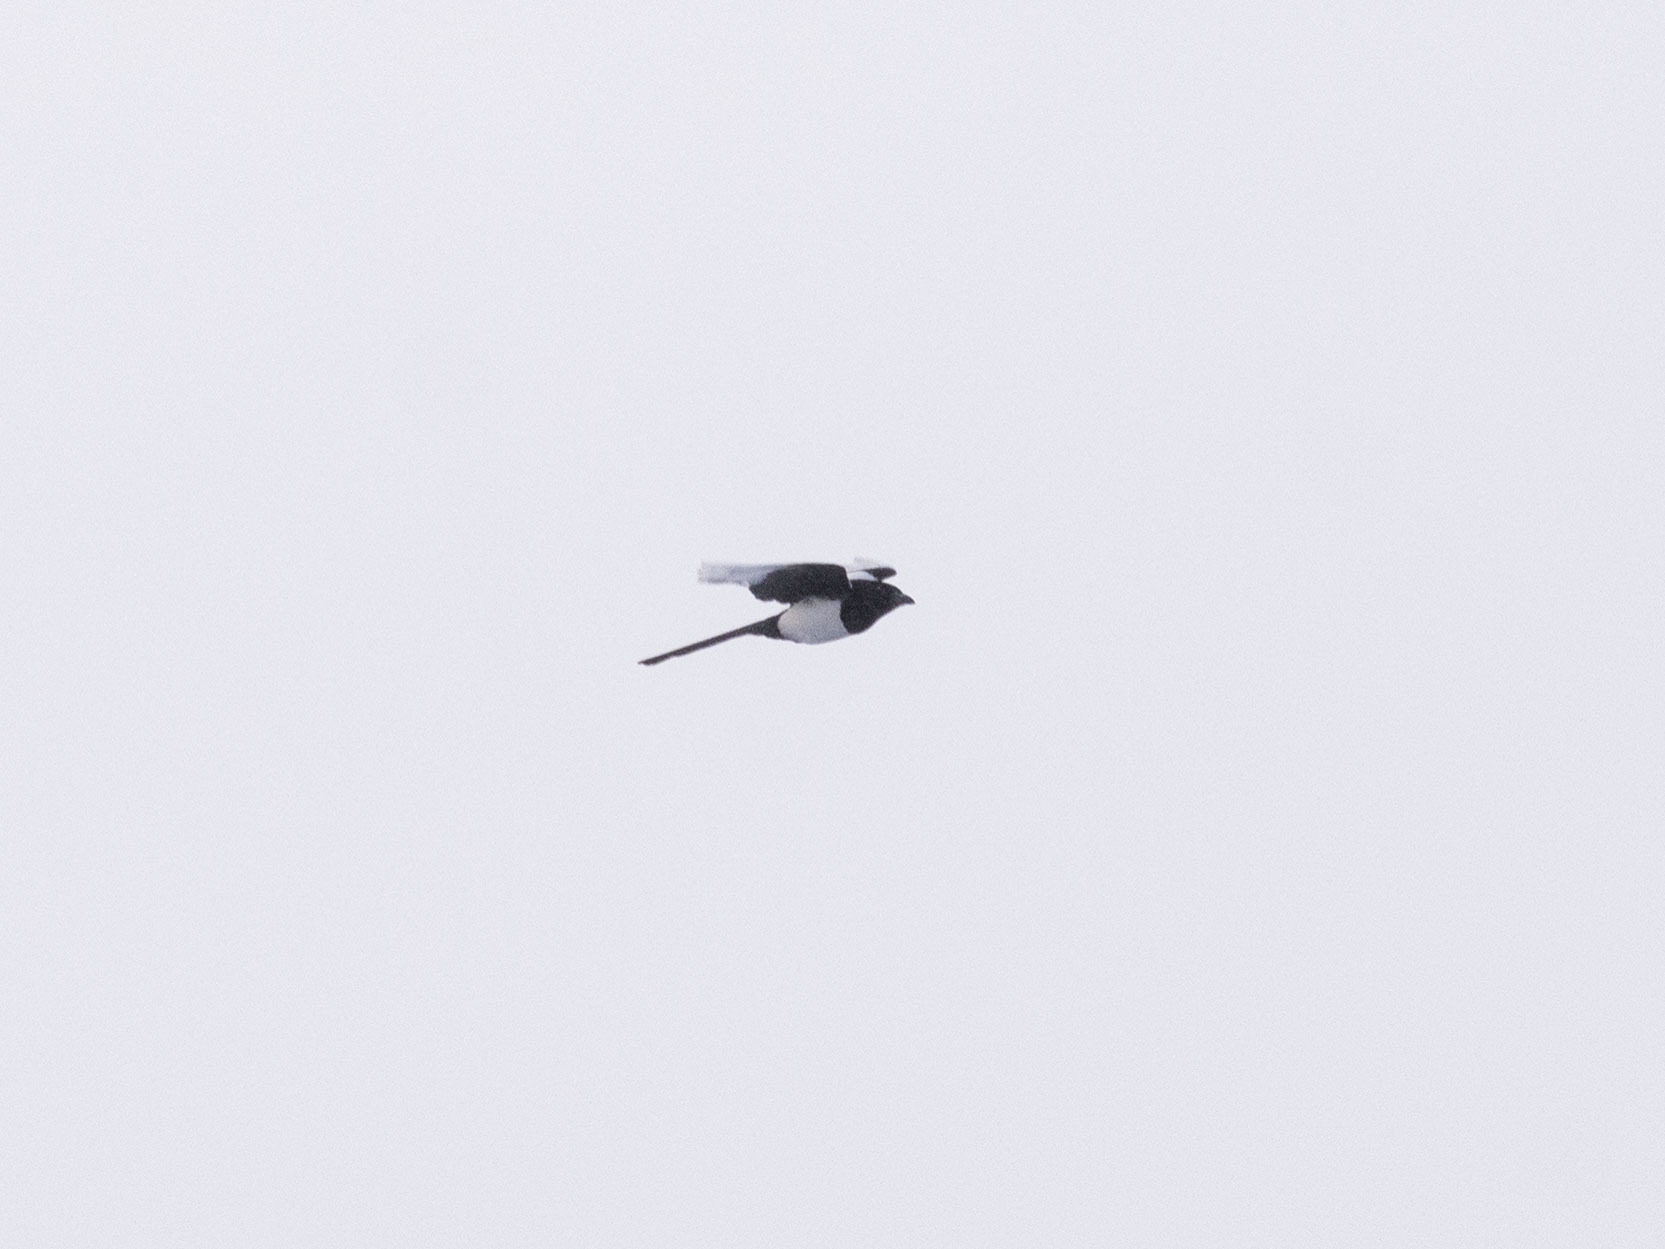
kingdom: Animalia
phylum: Chordata
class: Aves
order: Passeriformes
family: Corvidae
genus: Pica
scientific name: Pica pica
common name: Eurasian magpie
